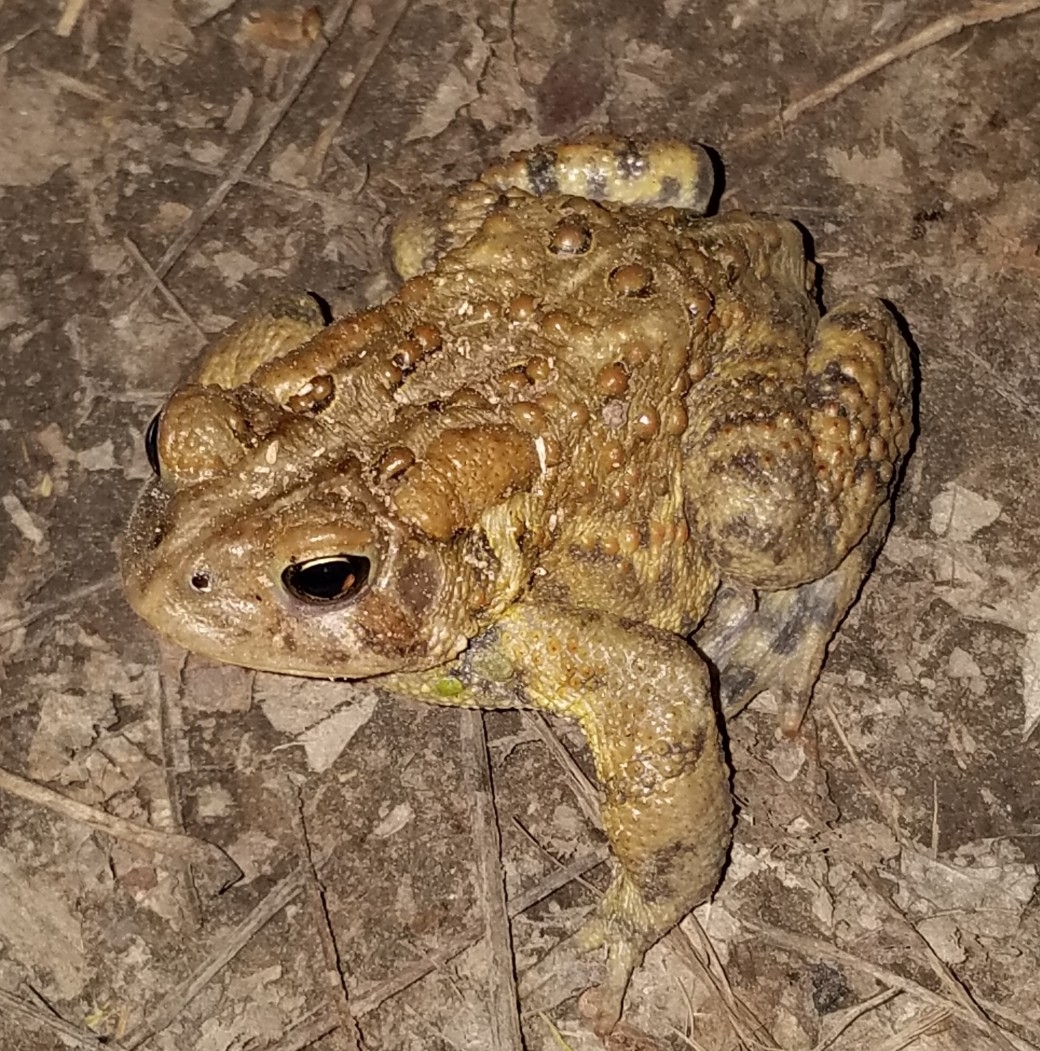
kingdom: Animalia
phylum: Chordata
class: Amphibia
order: Anura
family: Bufonidae
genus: Anaxyrus
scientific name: Anaxyrus americanus
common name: American toad
